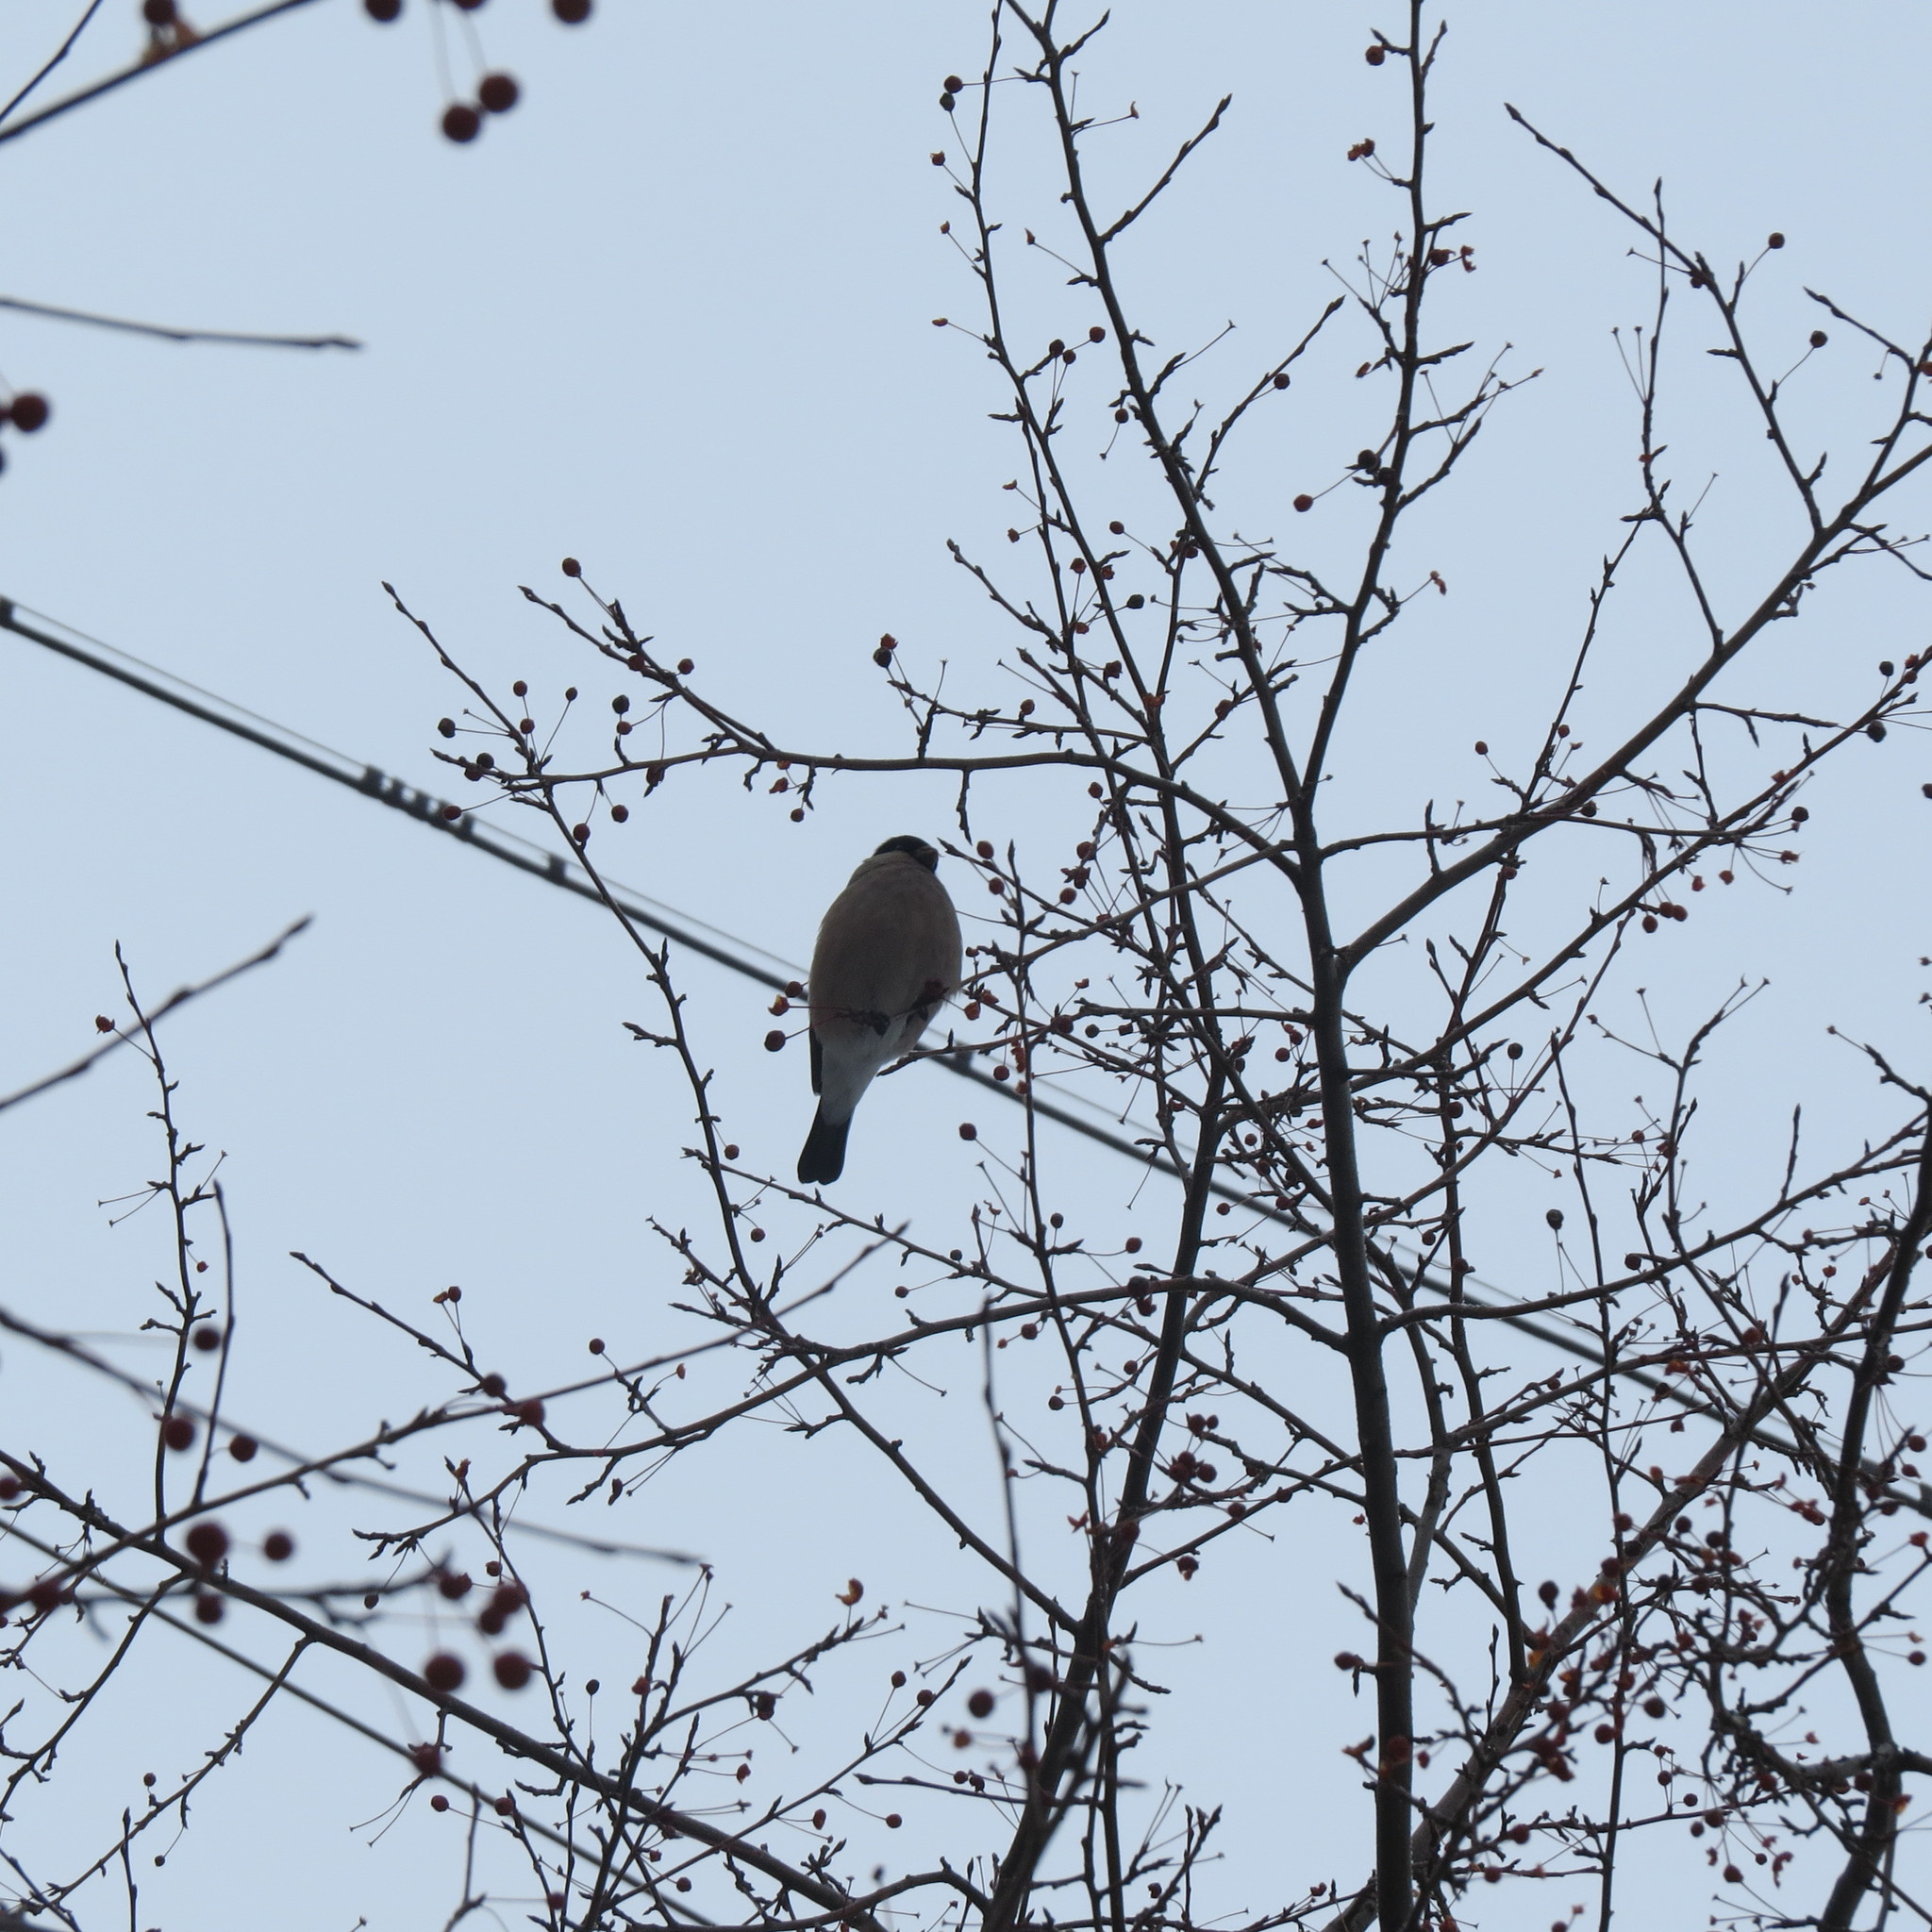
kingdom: Animalia
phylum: Chordata
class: Aves
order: Passeriformes
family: Fringillidae
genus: Pyrrhula
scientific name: Pyrrhula pyrrhula
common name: Eurasian bullfinch
